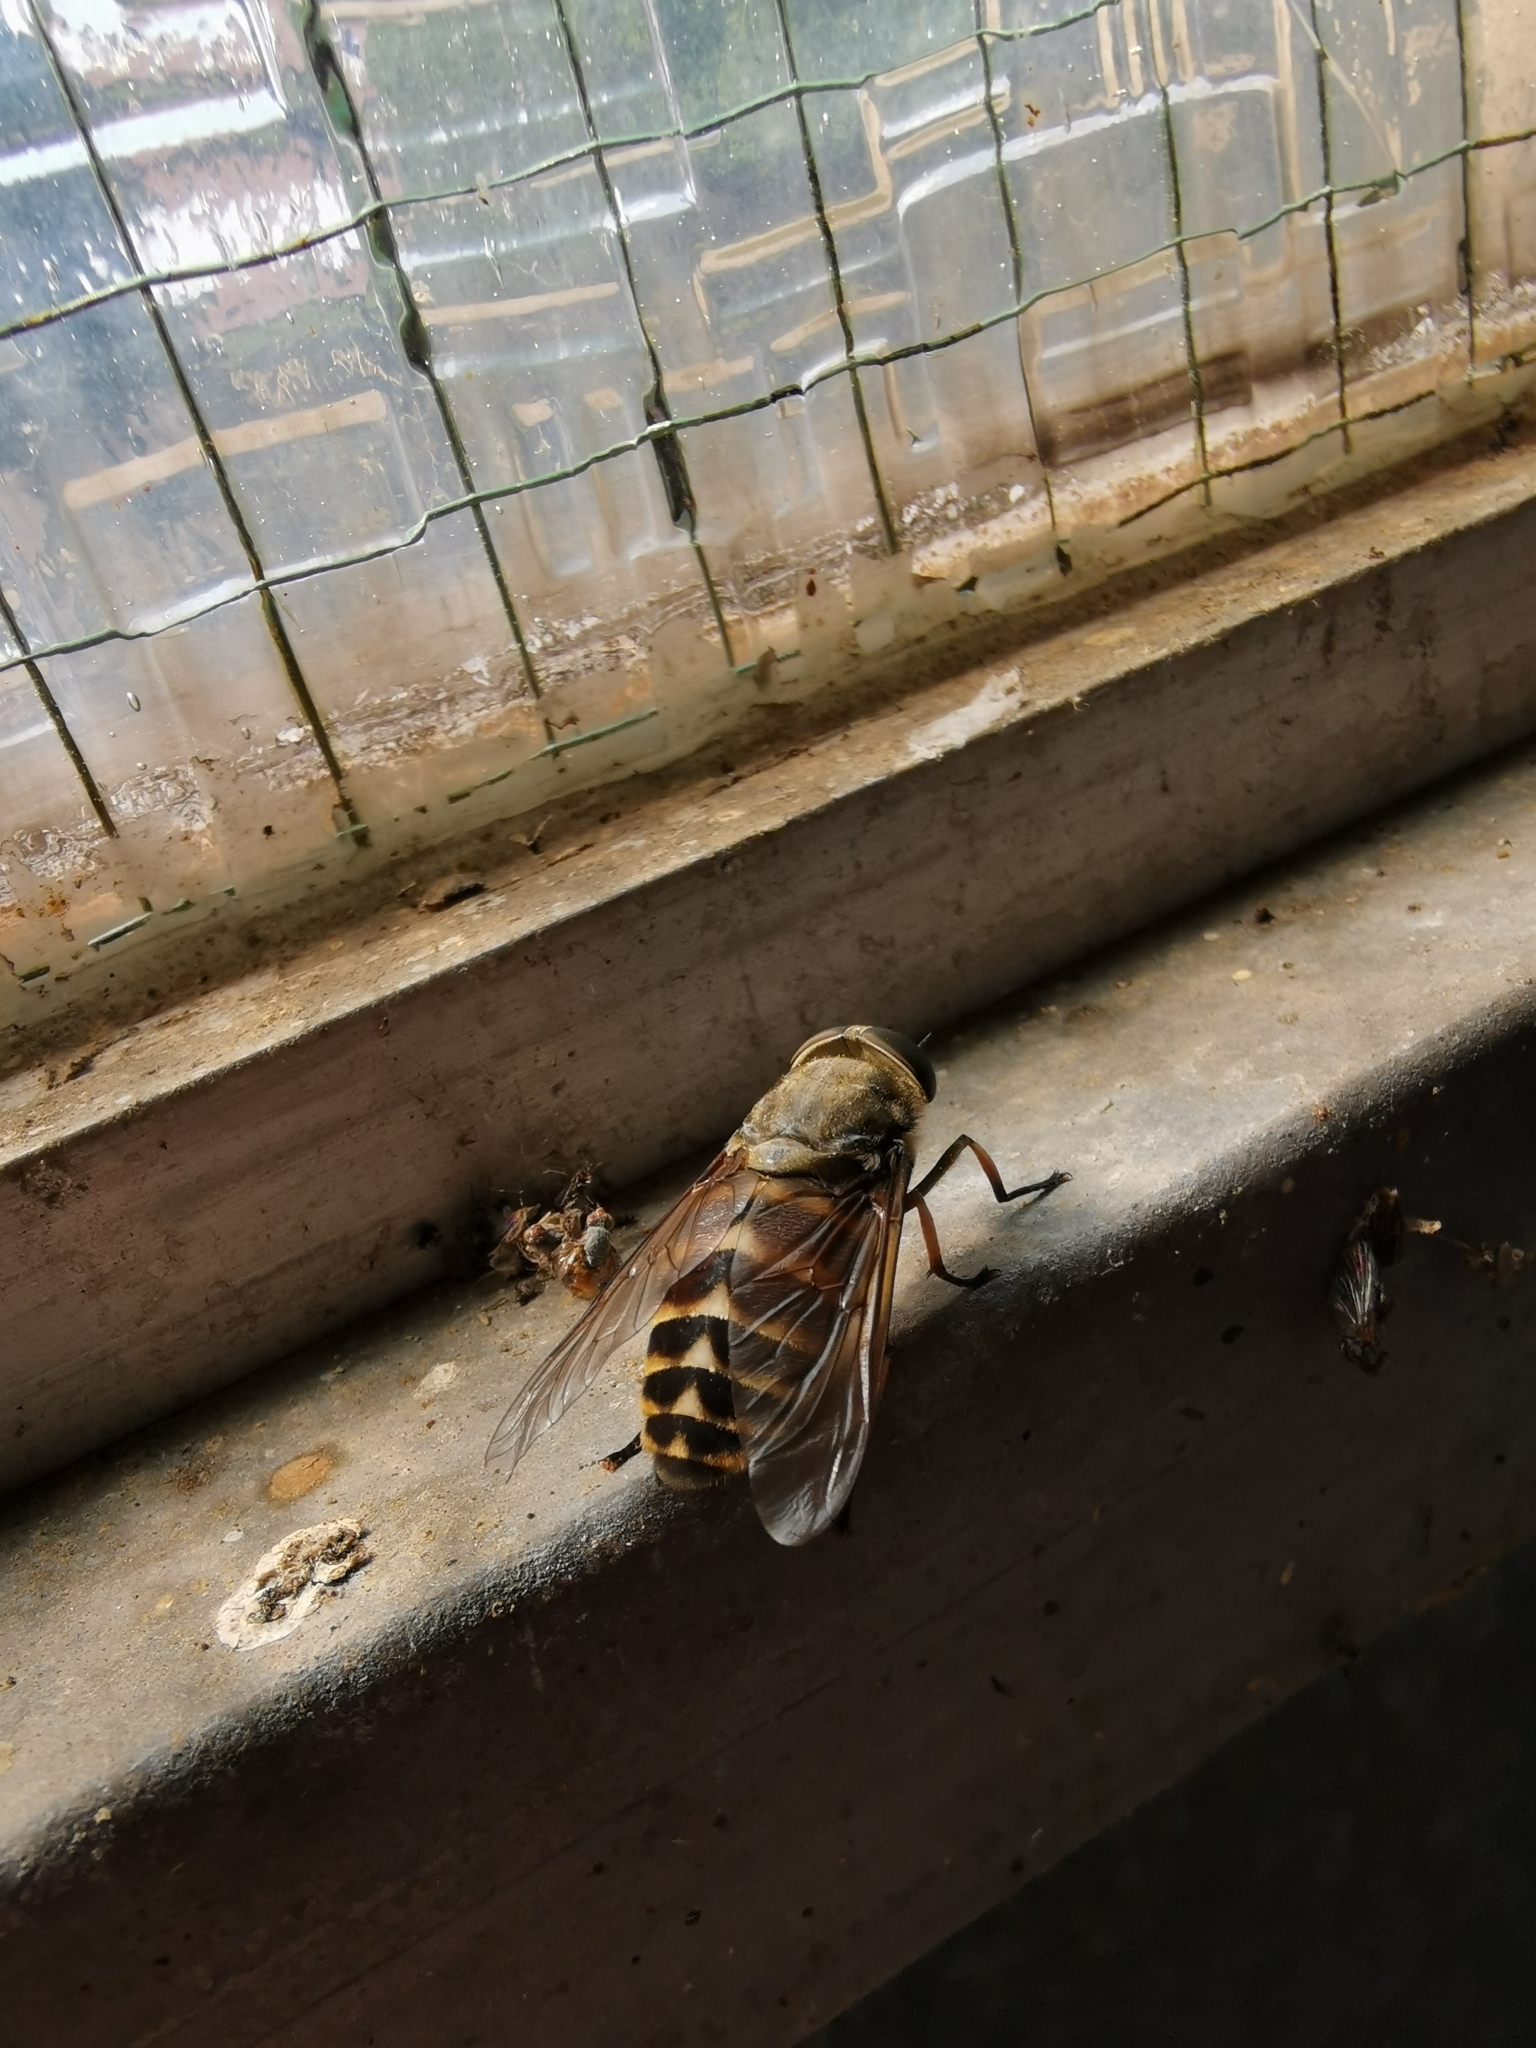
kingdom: Animalia
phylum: Arthropoda
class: Insecta
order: Diptera
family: Tabanidae
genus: Tabanus
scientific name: Tabanus sudeticus
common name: Dark giant horsefly
